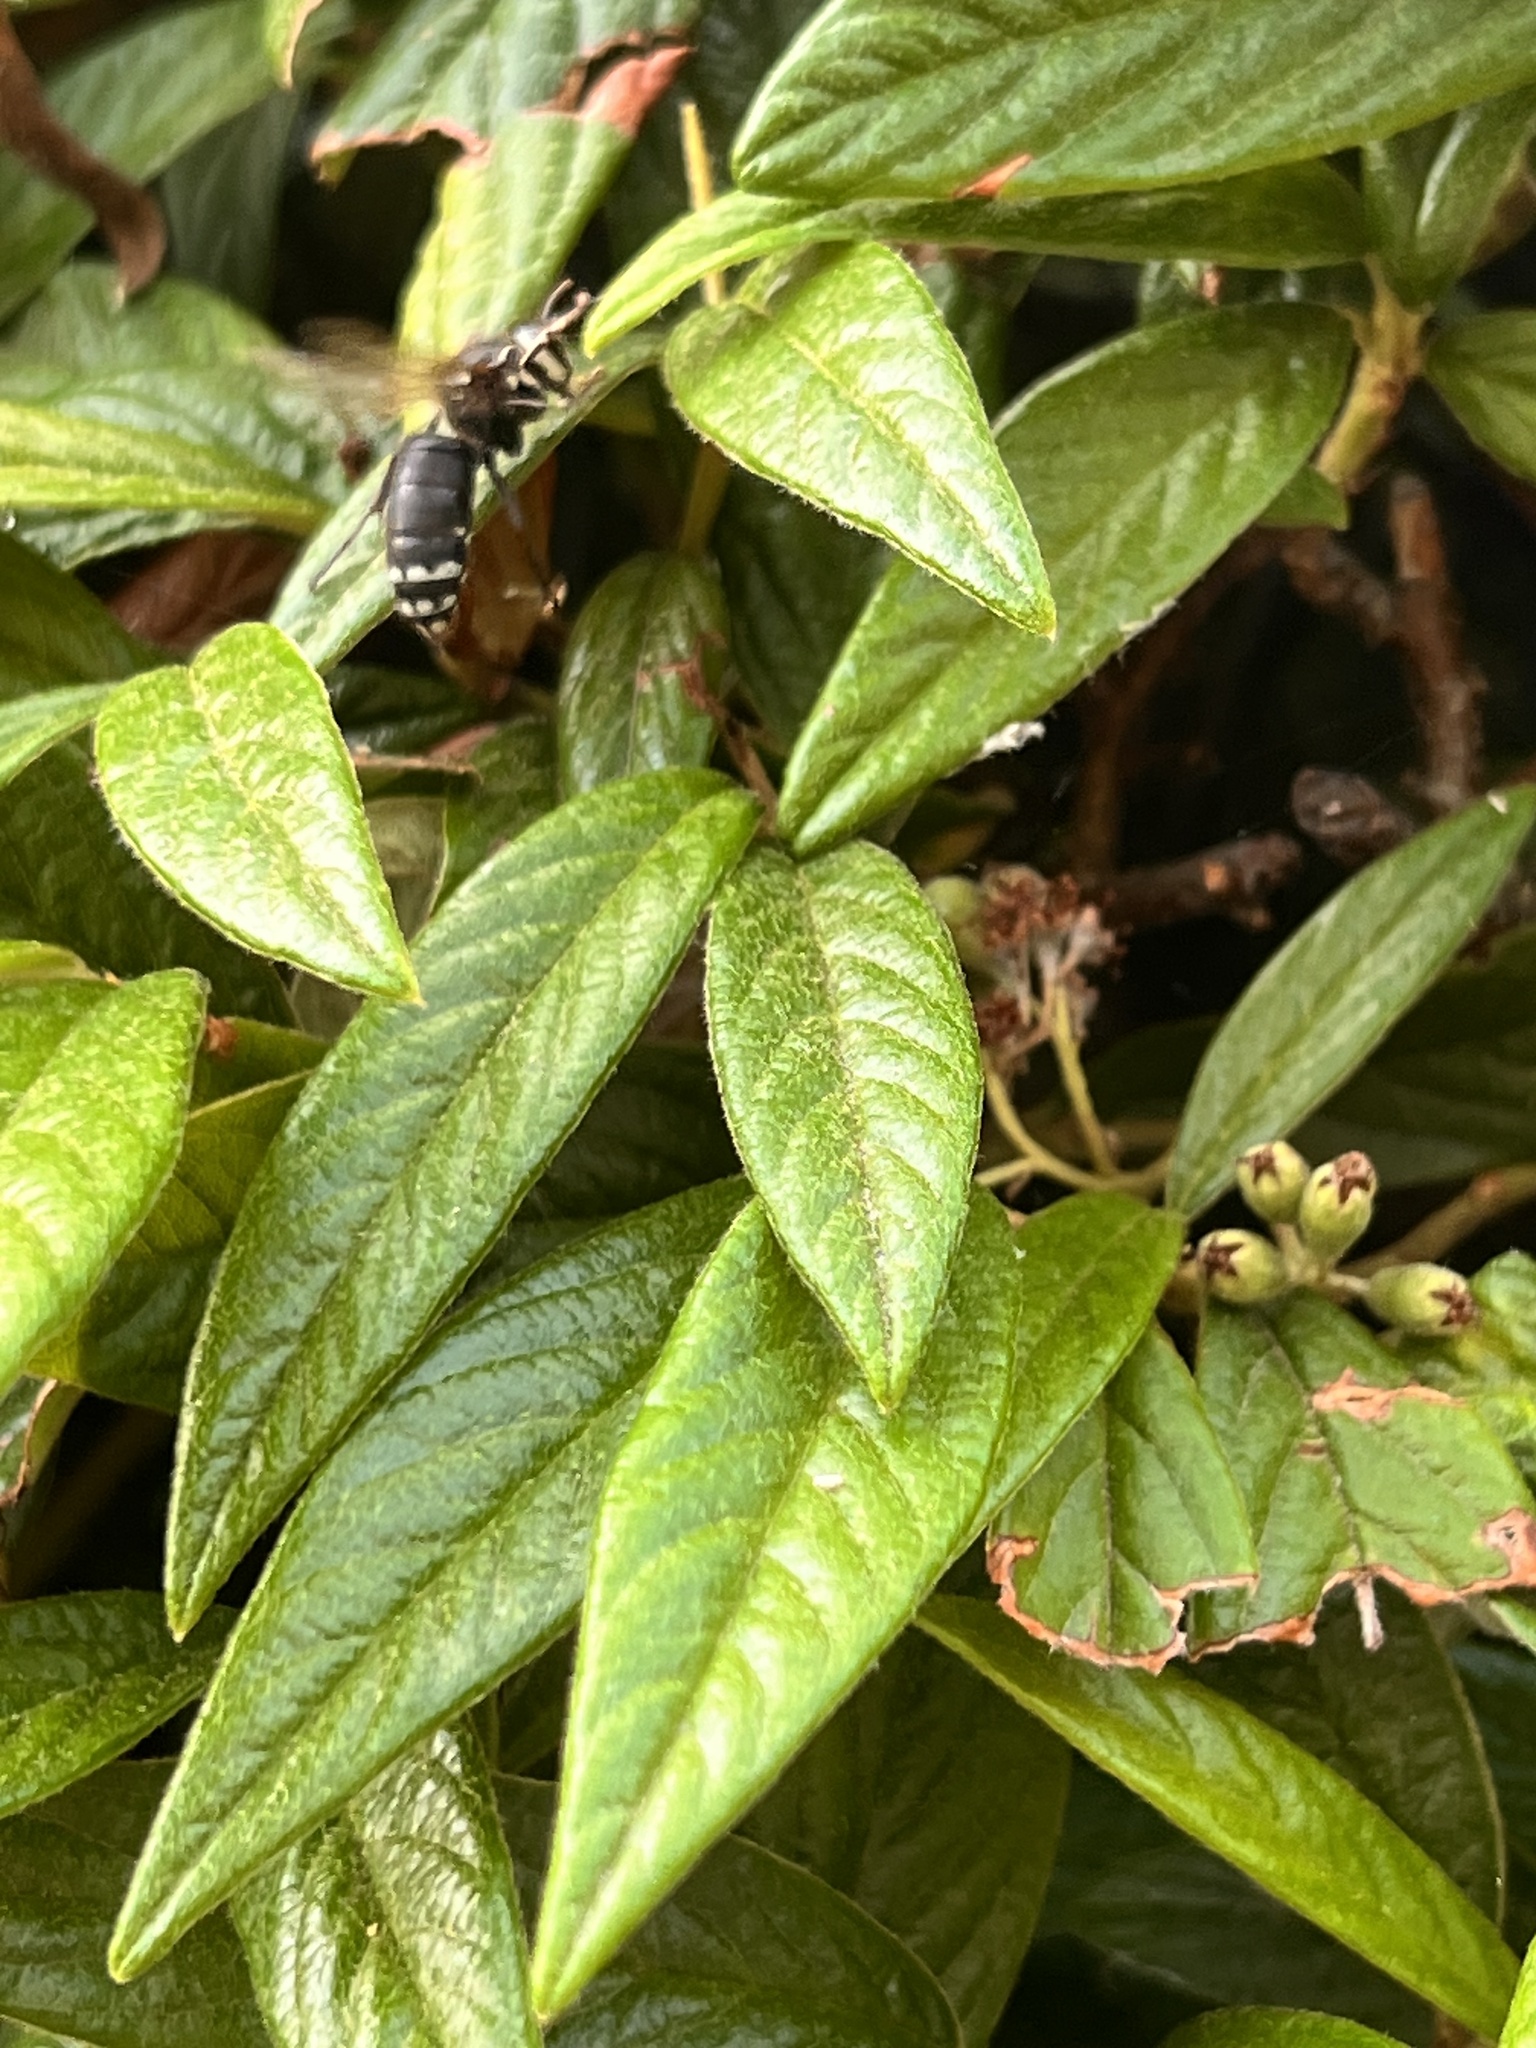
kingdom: Animalia
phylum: Arthropoda
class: Insecta
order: Hymenoptera
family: Vespidae
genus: Dolichovespula
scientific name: Dolichovespula maculata
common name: Bald-faced hornet
